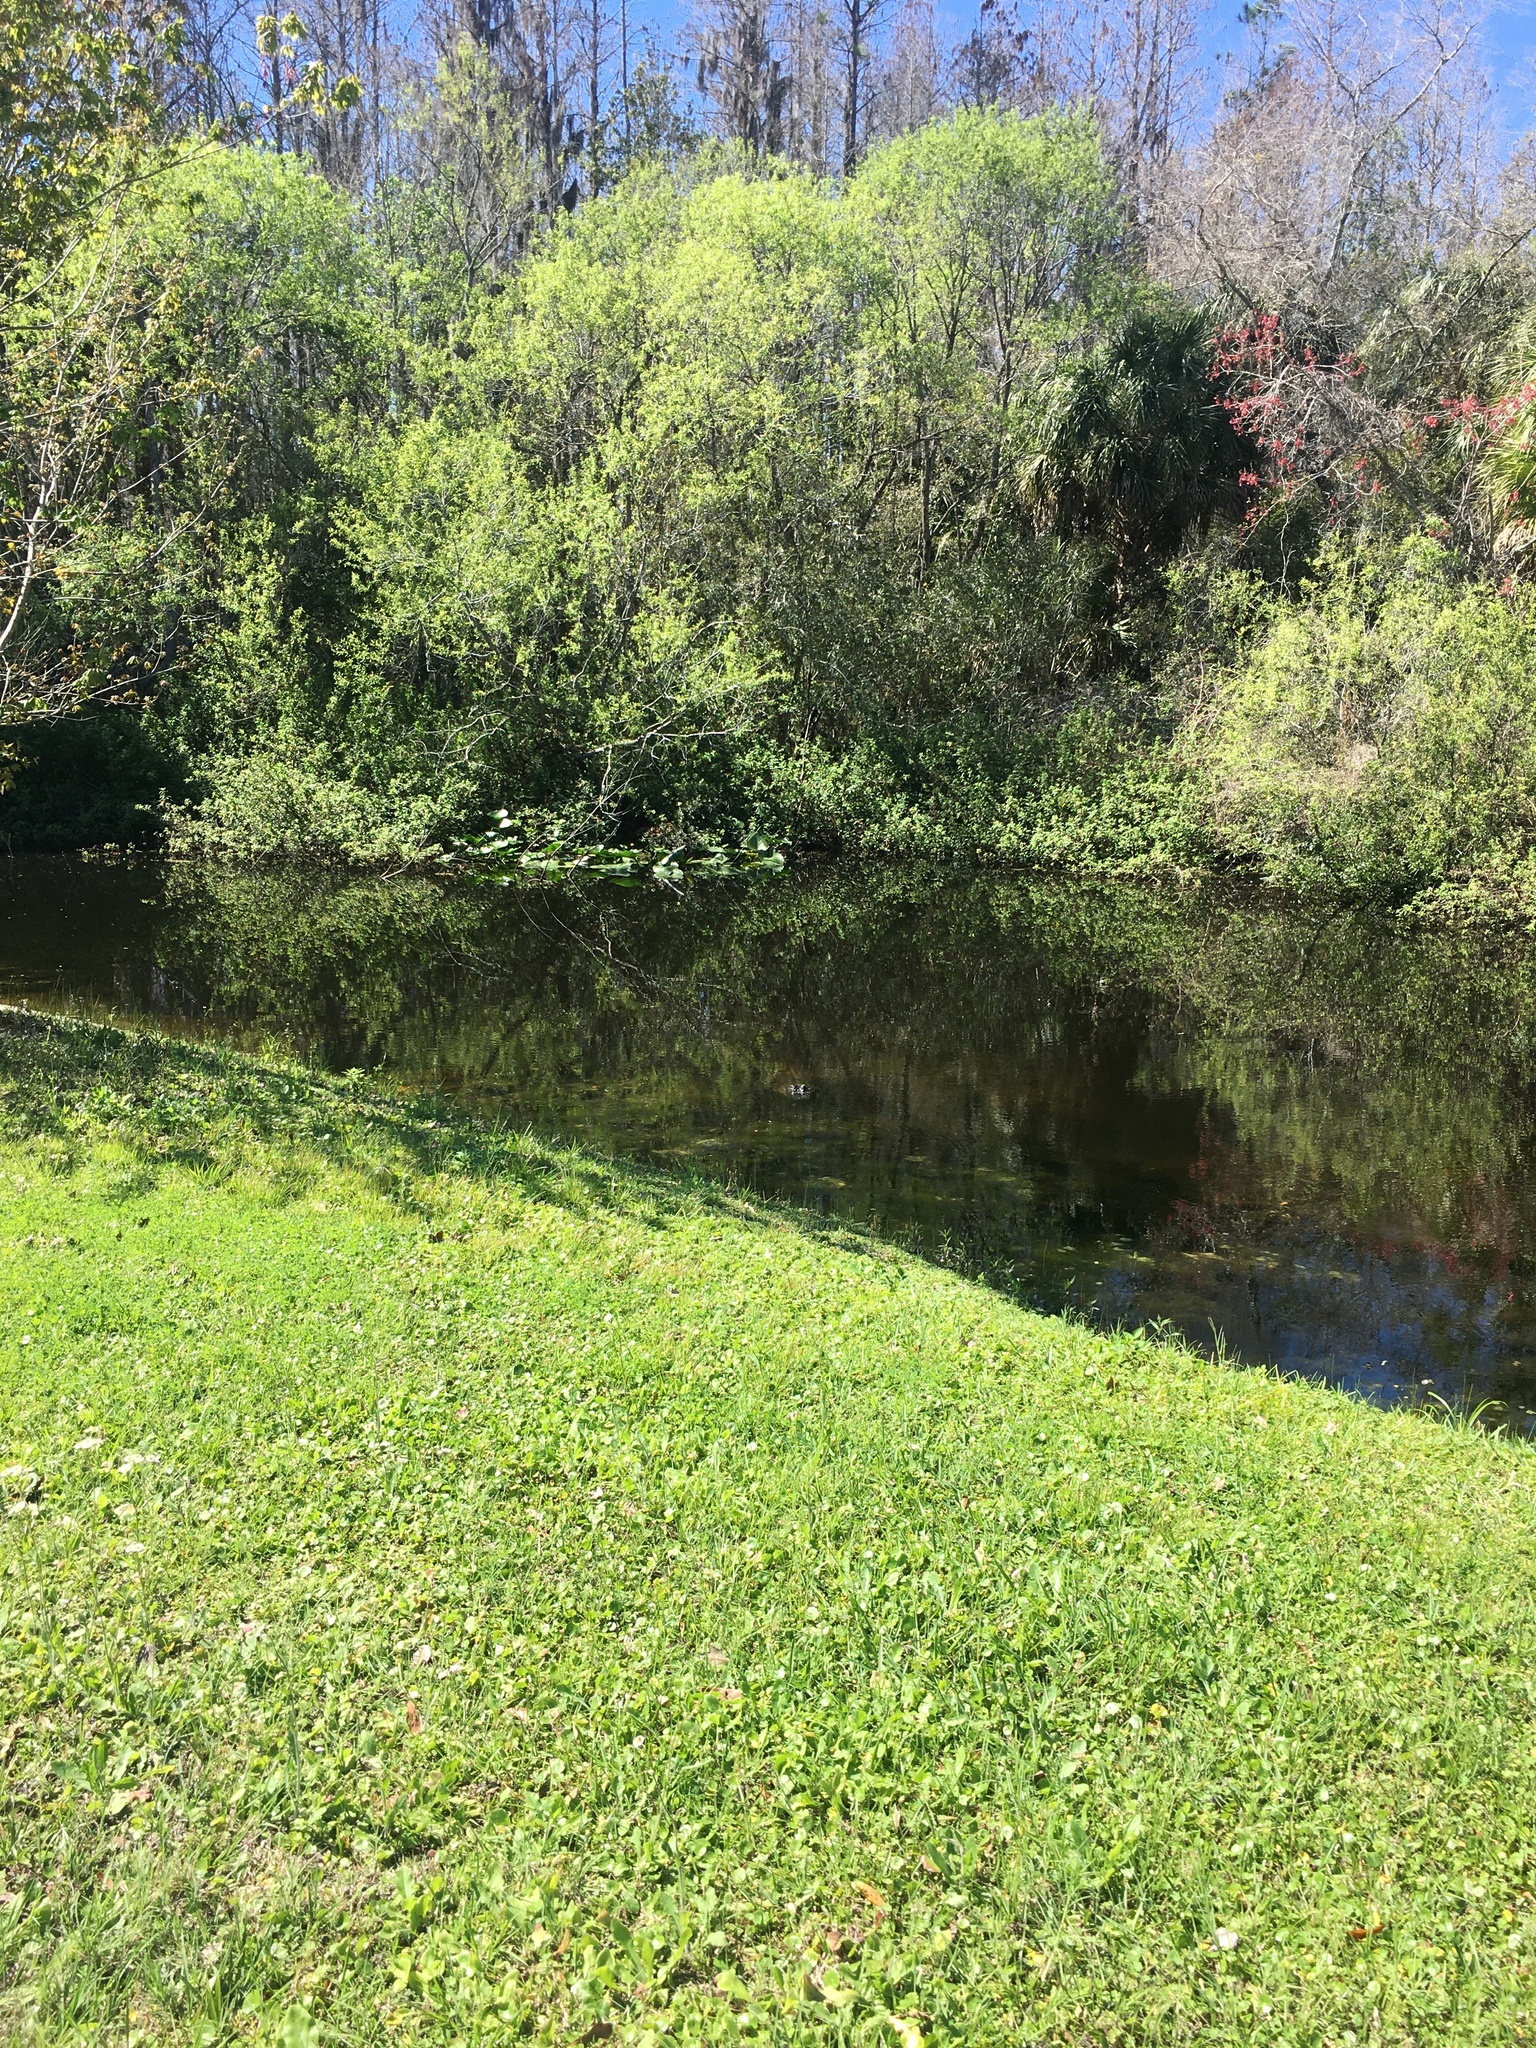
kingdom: Animalia
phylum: Chordata
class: Crocodylia
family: Alligatoridae
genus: Alligator
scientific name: Alligator mississippiensis
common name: American alligator
